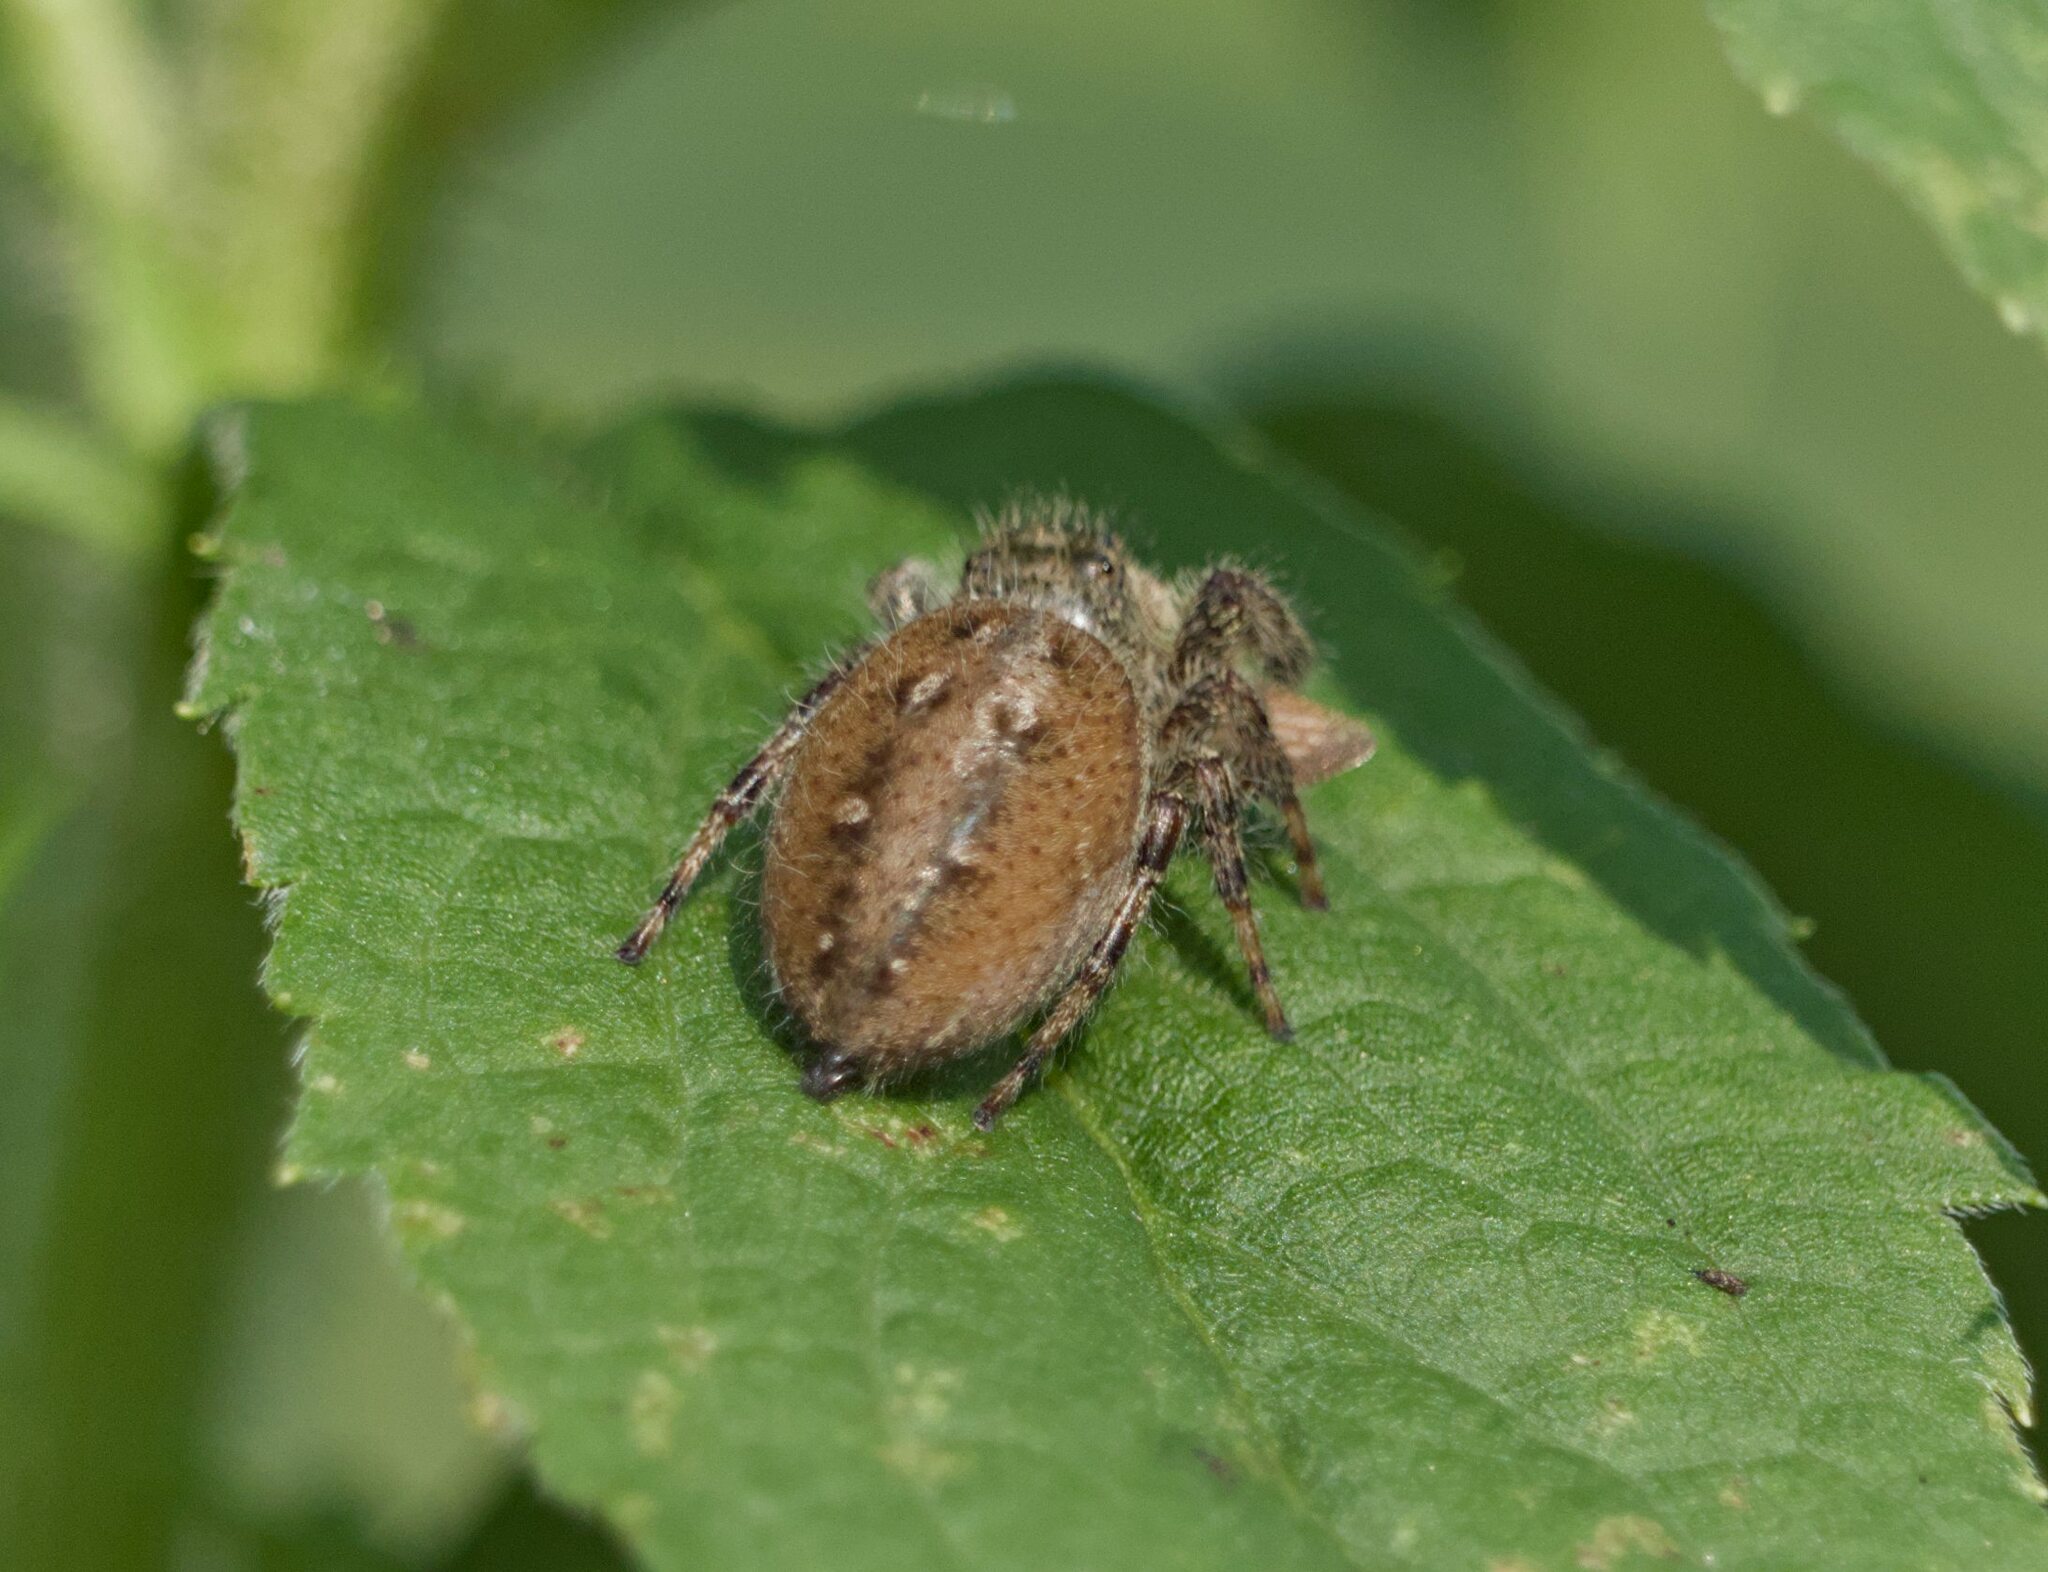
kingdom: Animalia
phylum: Arthropoda
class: Arachnida
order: Araneae
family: Salticidae
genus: Phidippus
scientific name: Phidippus clarus
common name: Brilliant jumping spider
